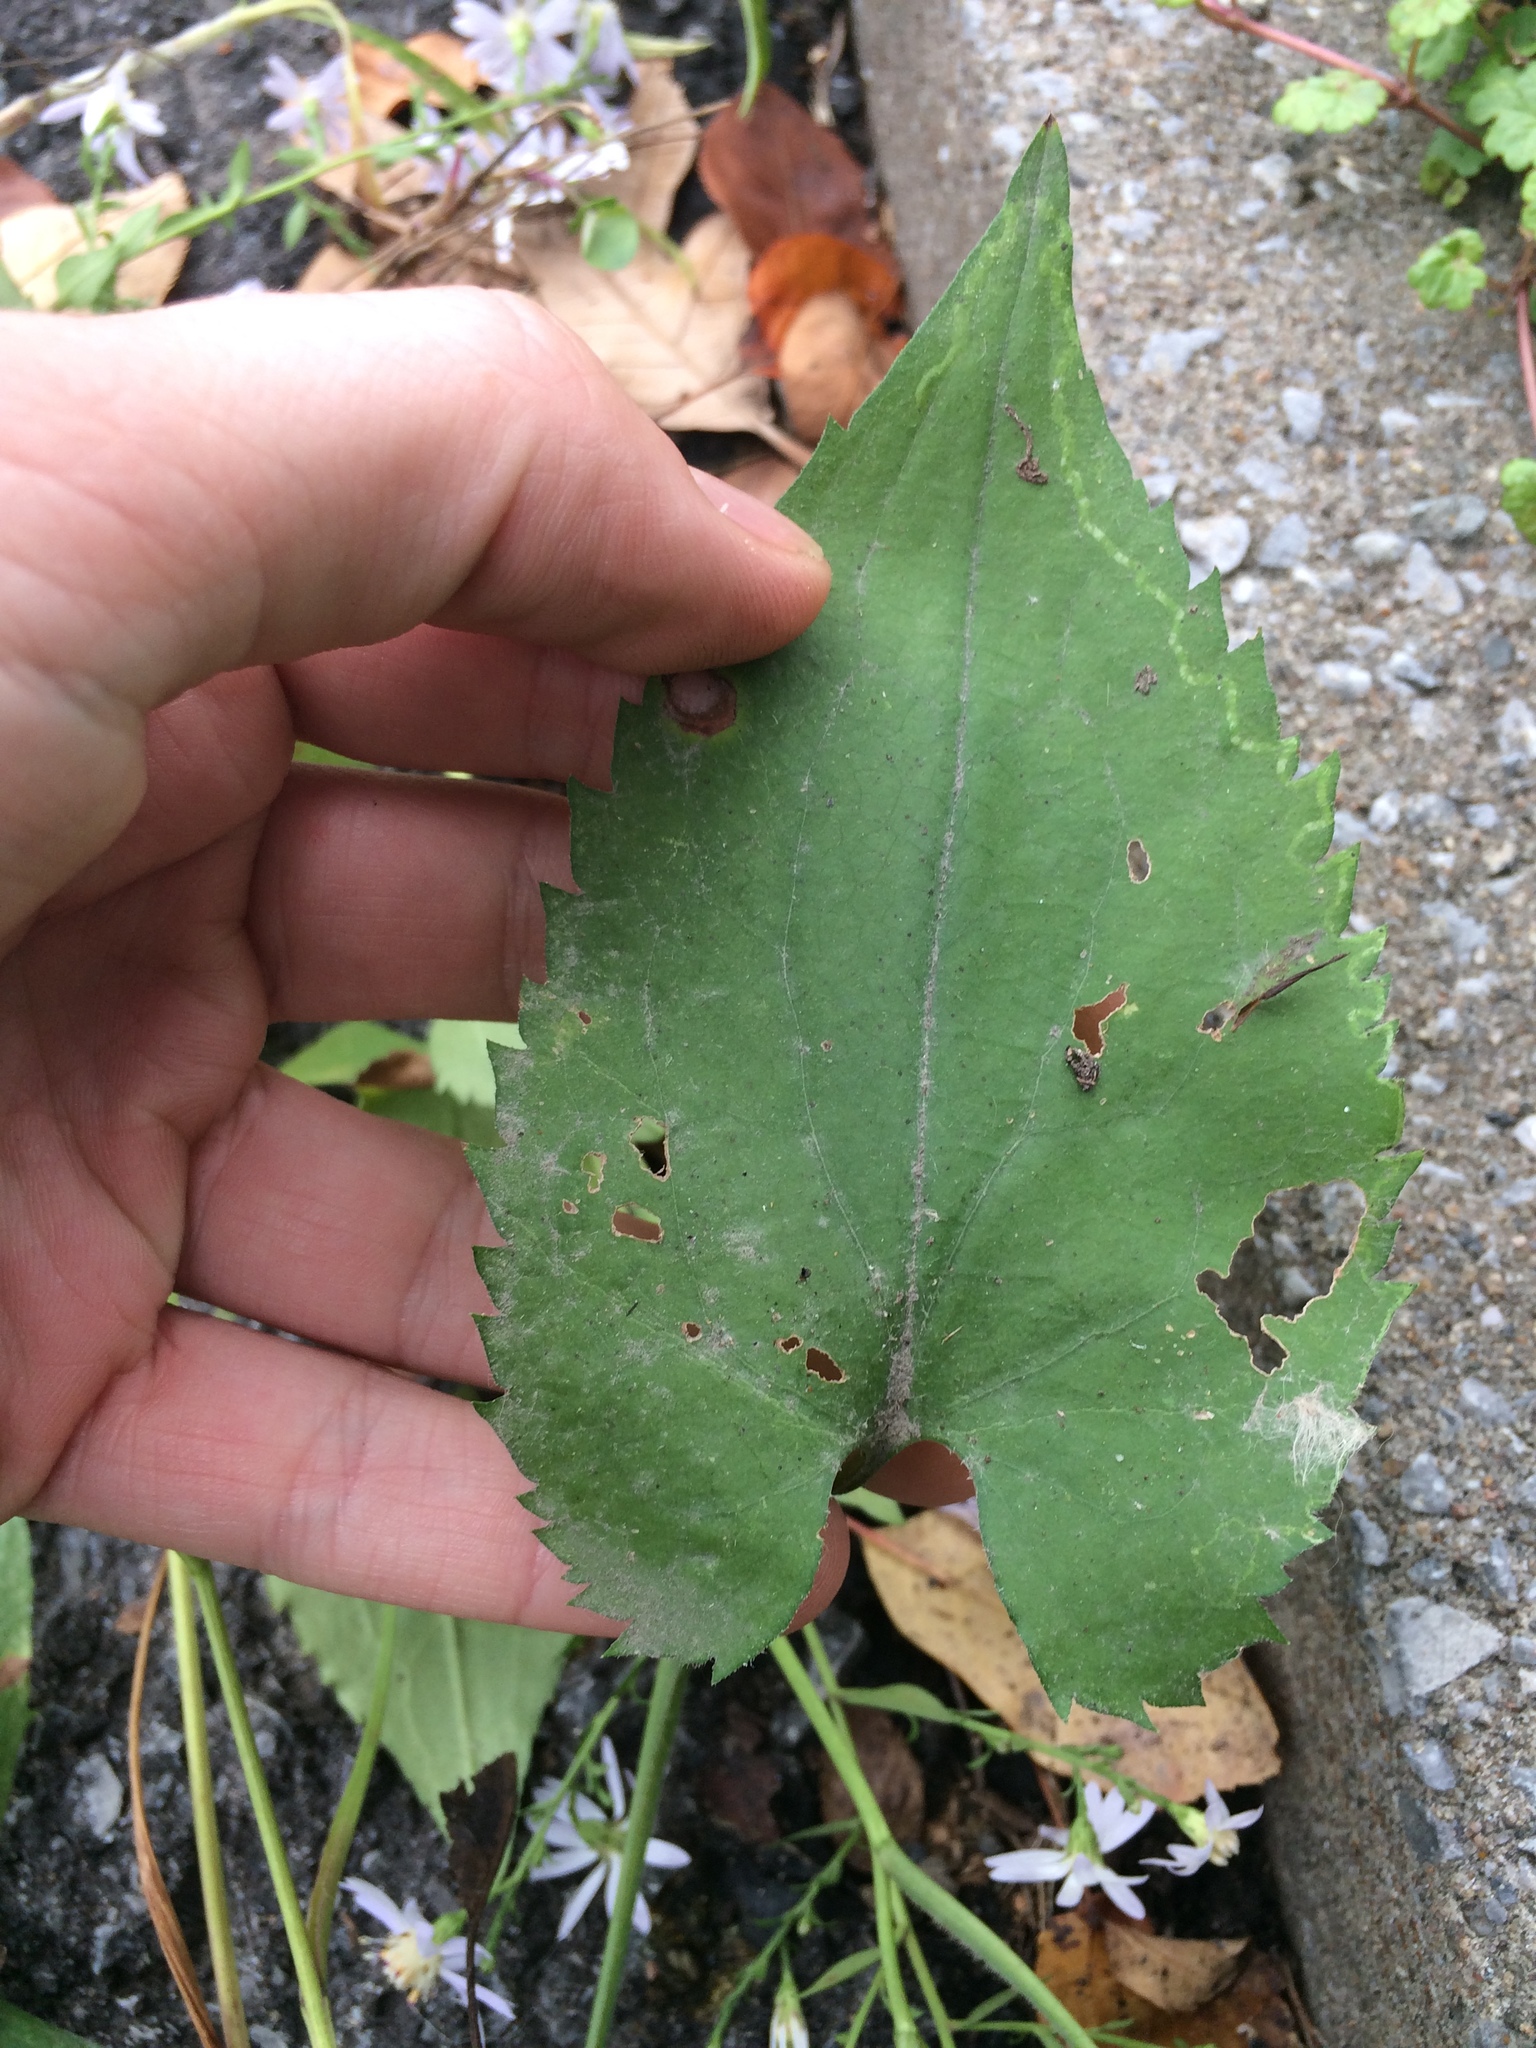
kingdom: Plantae
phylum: Tracheophyta
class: Magnoliopsida
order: Asterales
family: Asteraceae
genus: Symphyotrichum
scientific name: Symphyotrichum cordifolium
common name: Beeweed
